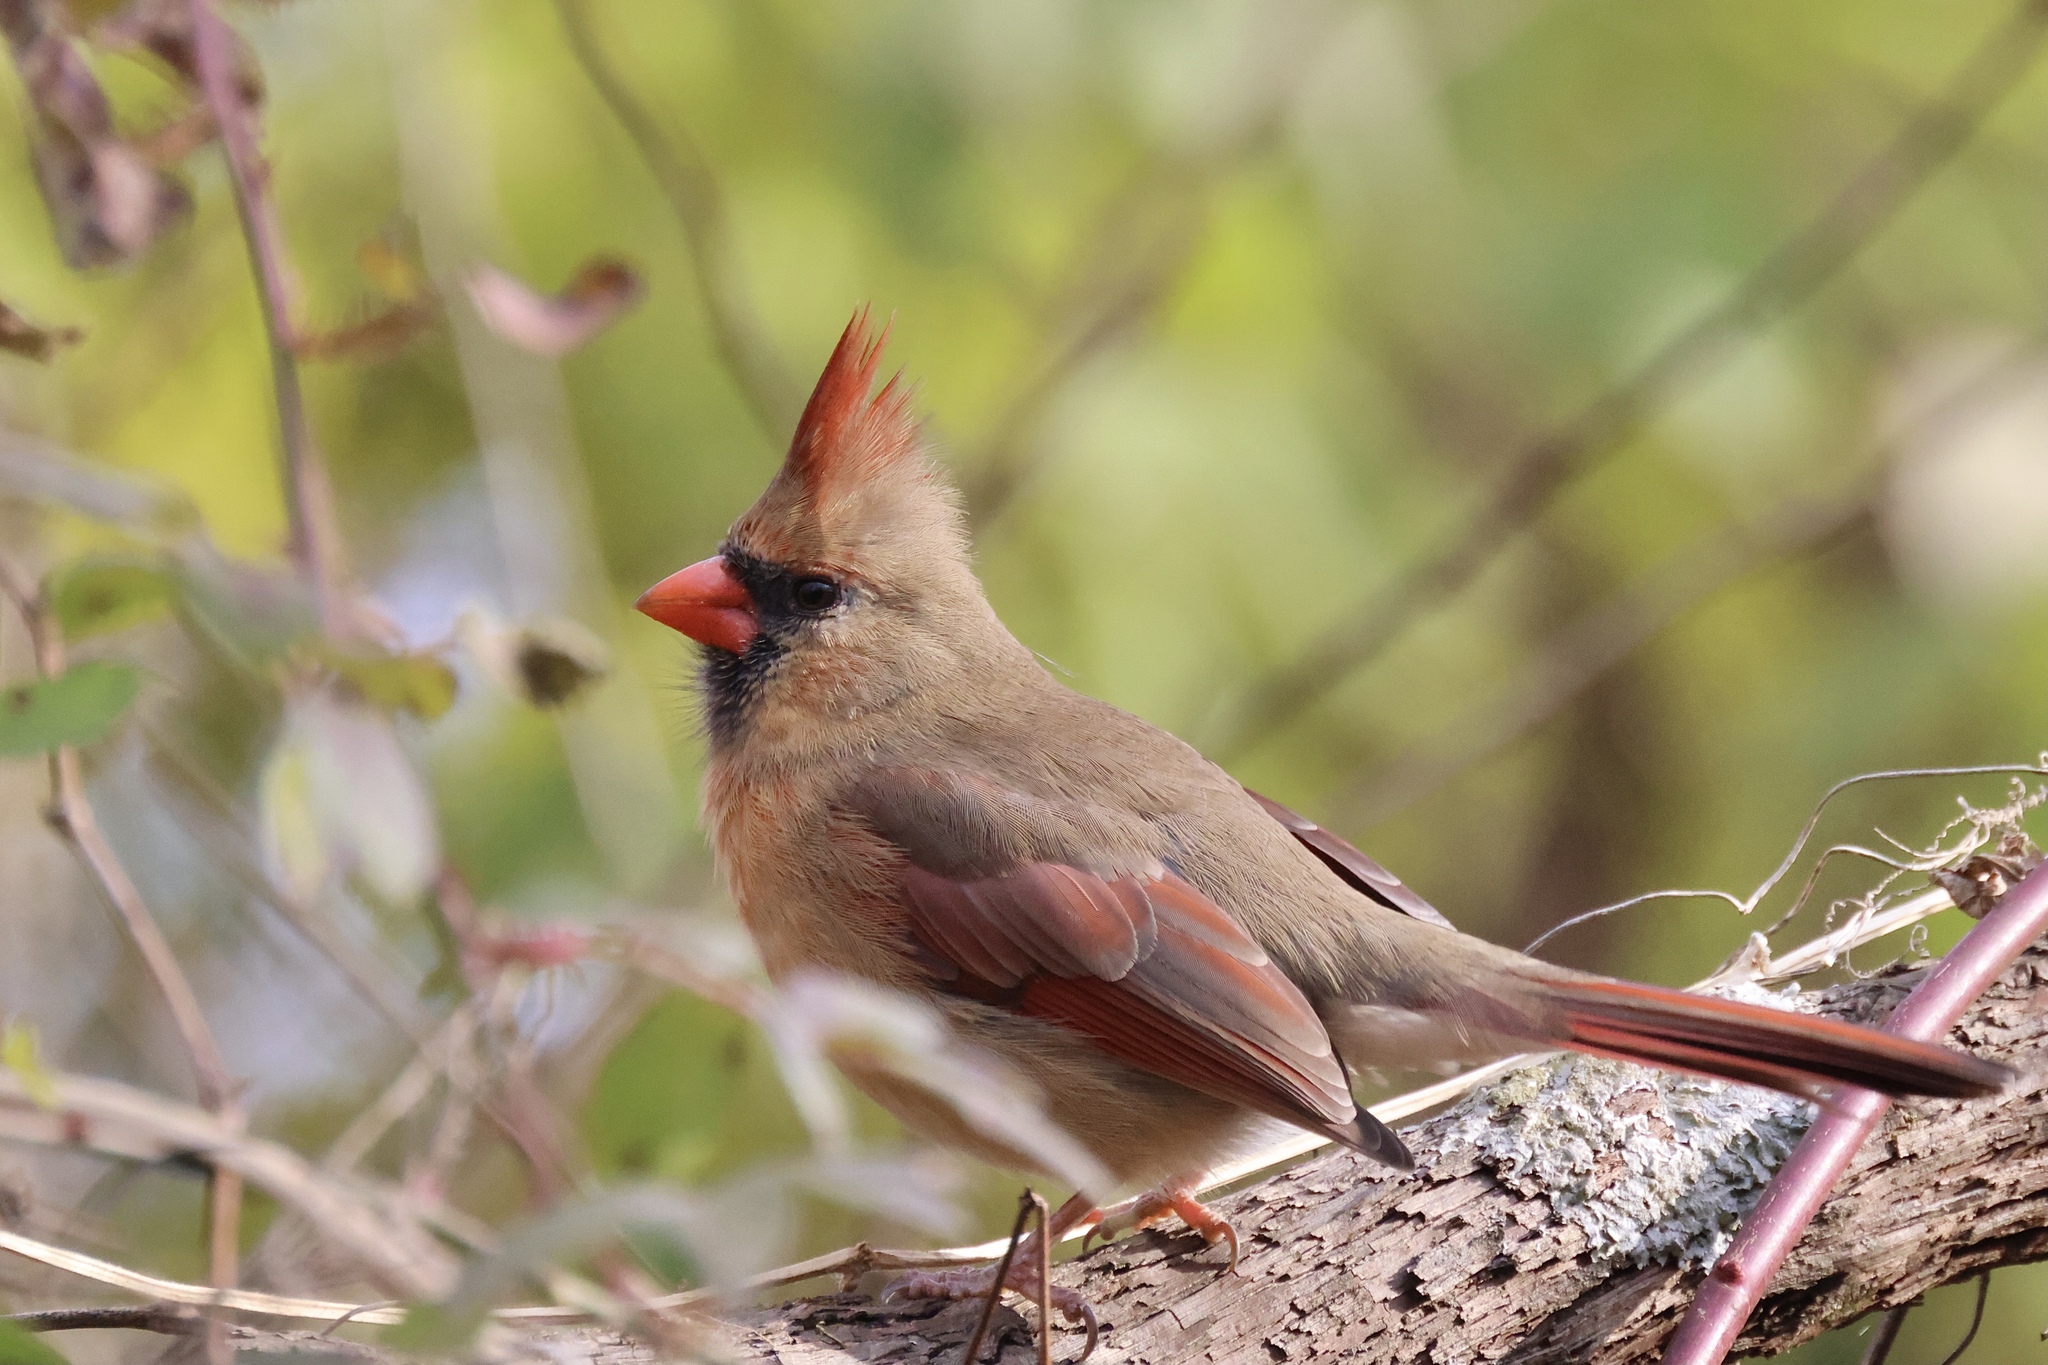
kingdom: Animalia
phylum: Chordata
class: Aves
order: Passeriformes
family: Cardinalidae
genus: Cardinalis
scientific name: Cardinalis cardinalis
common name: Northern cardinal
